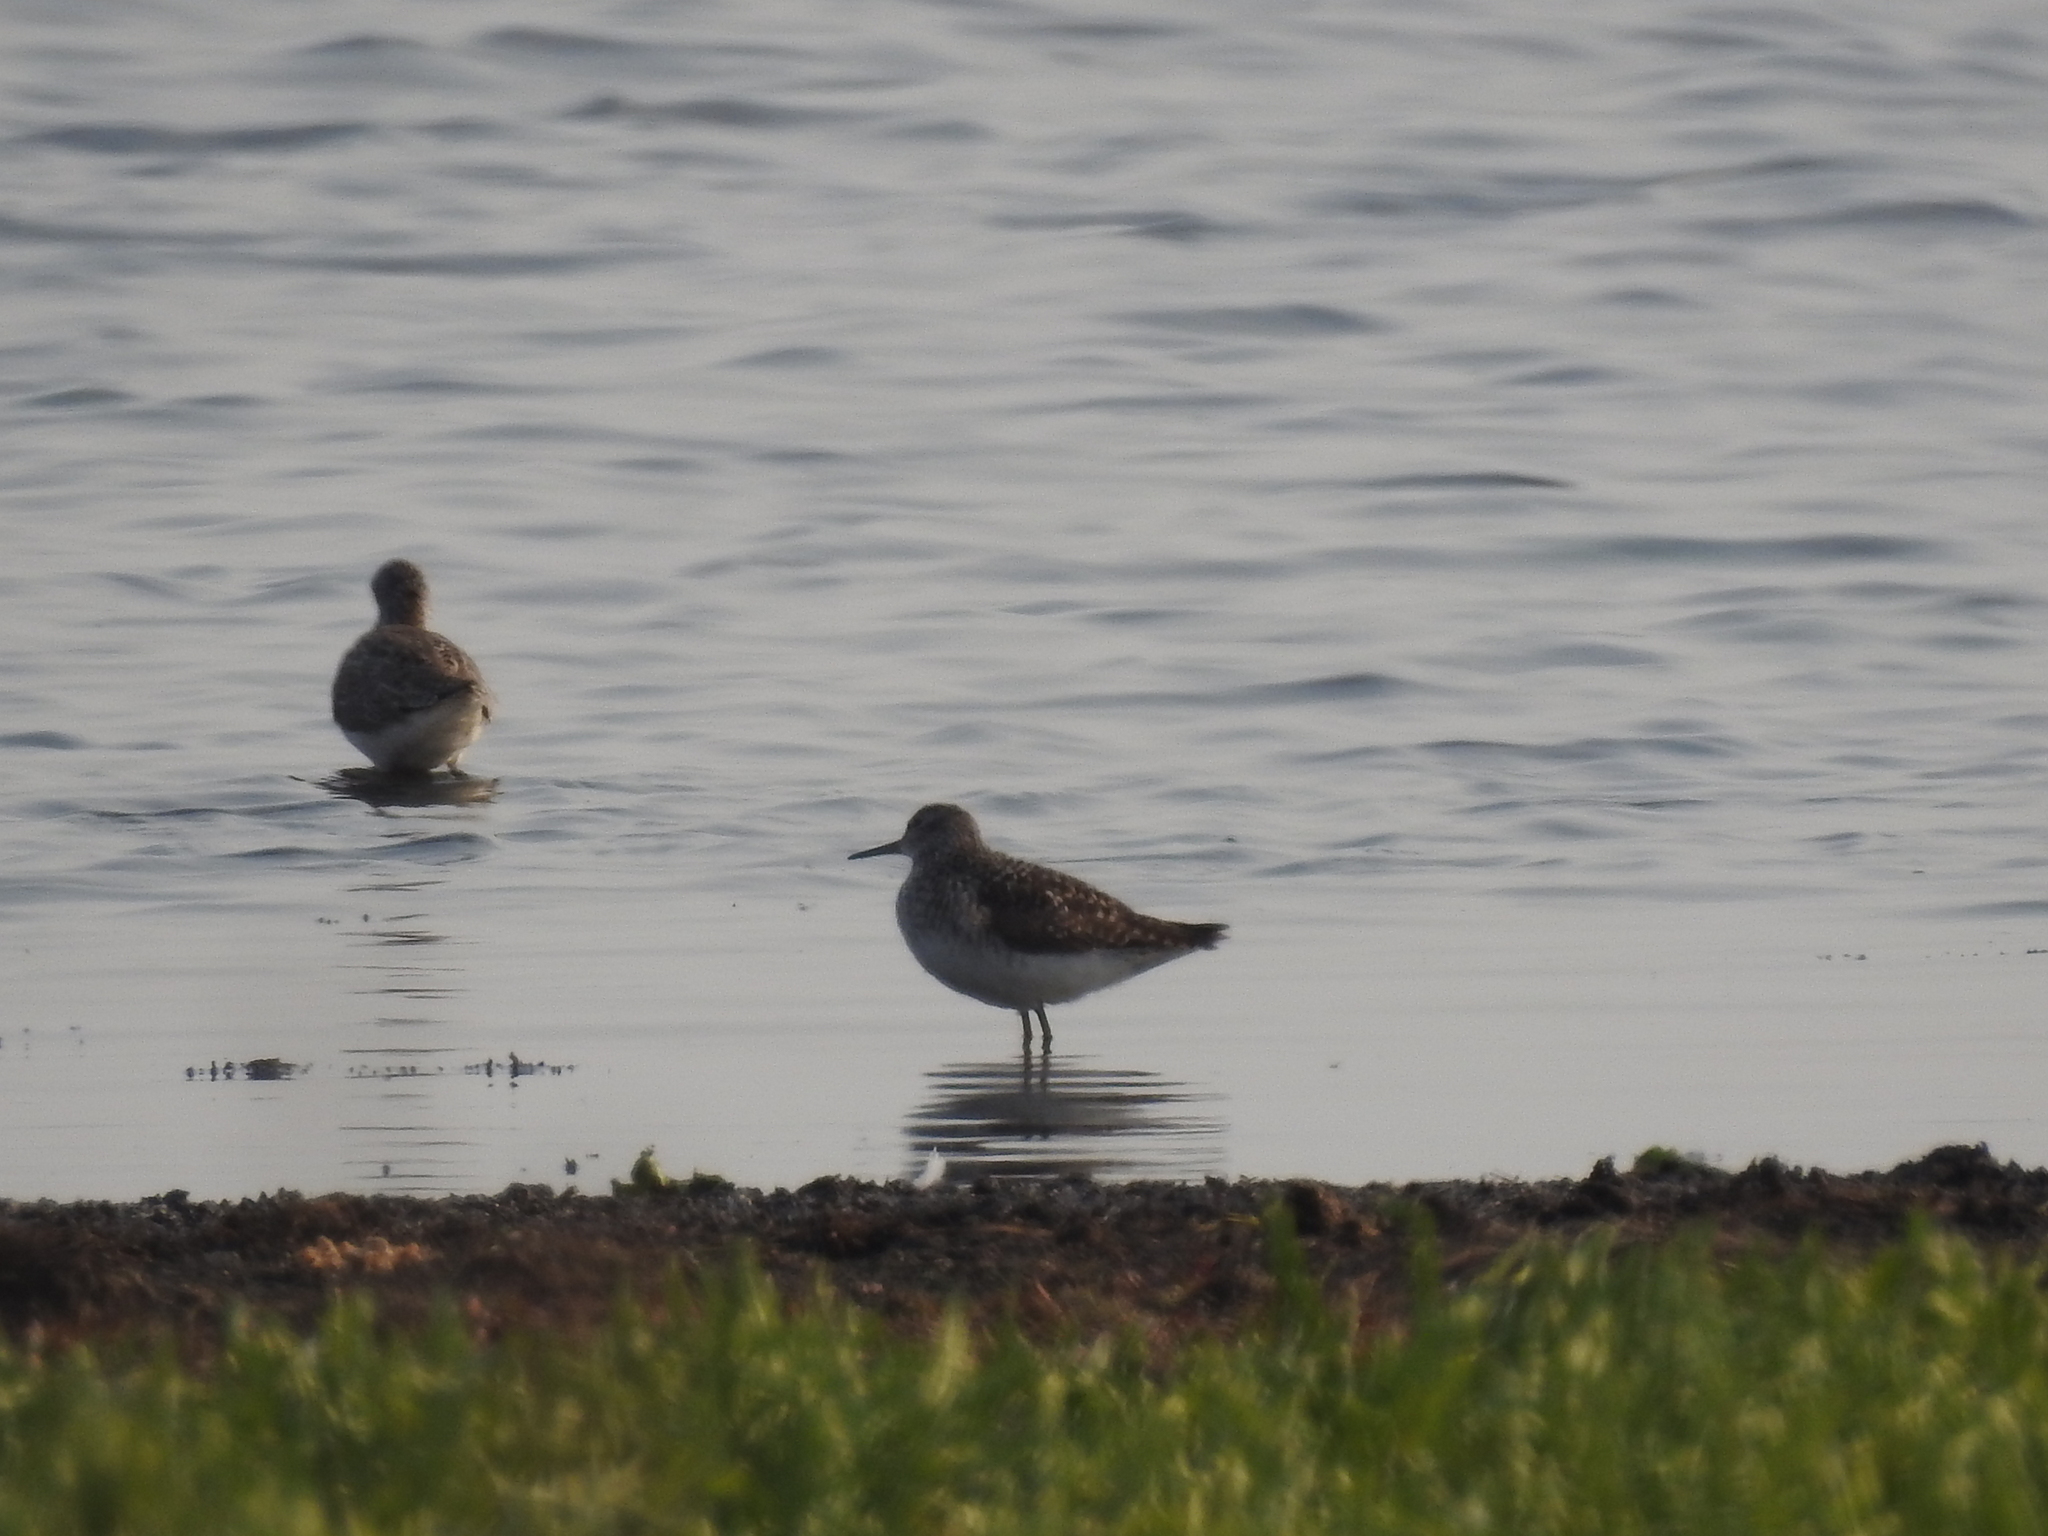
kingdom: Animalia
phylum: Chordata
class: Aves
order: Charadriiformes
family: Scolopacidae
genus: Tringa
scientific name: Tringa glareola
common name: Wood sandpiper
